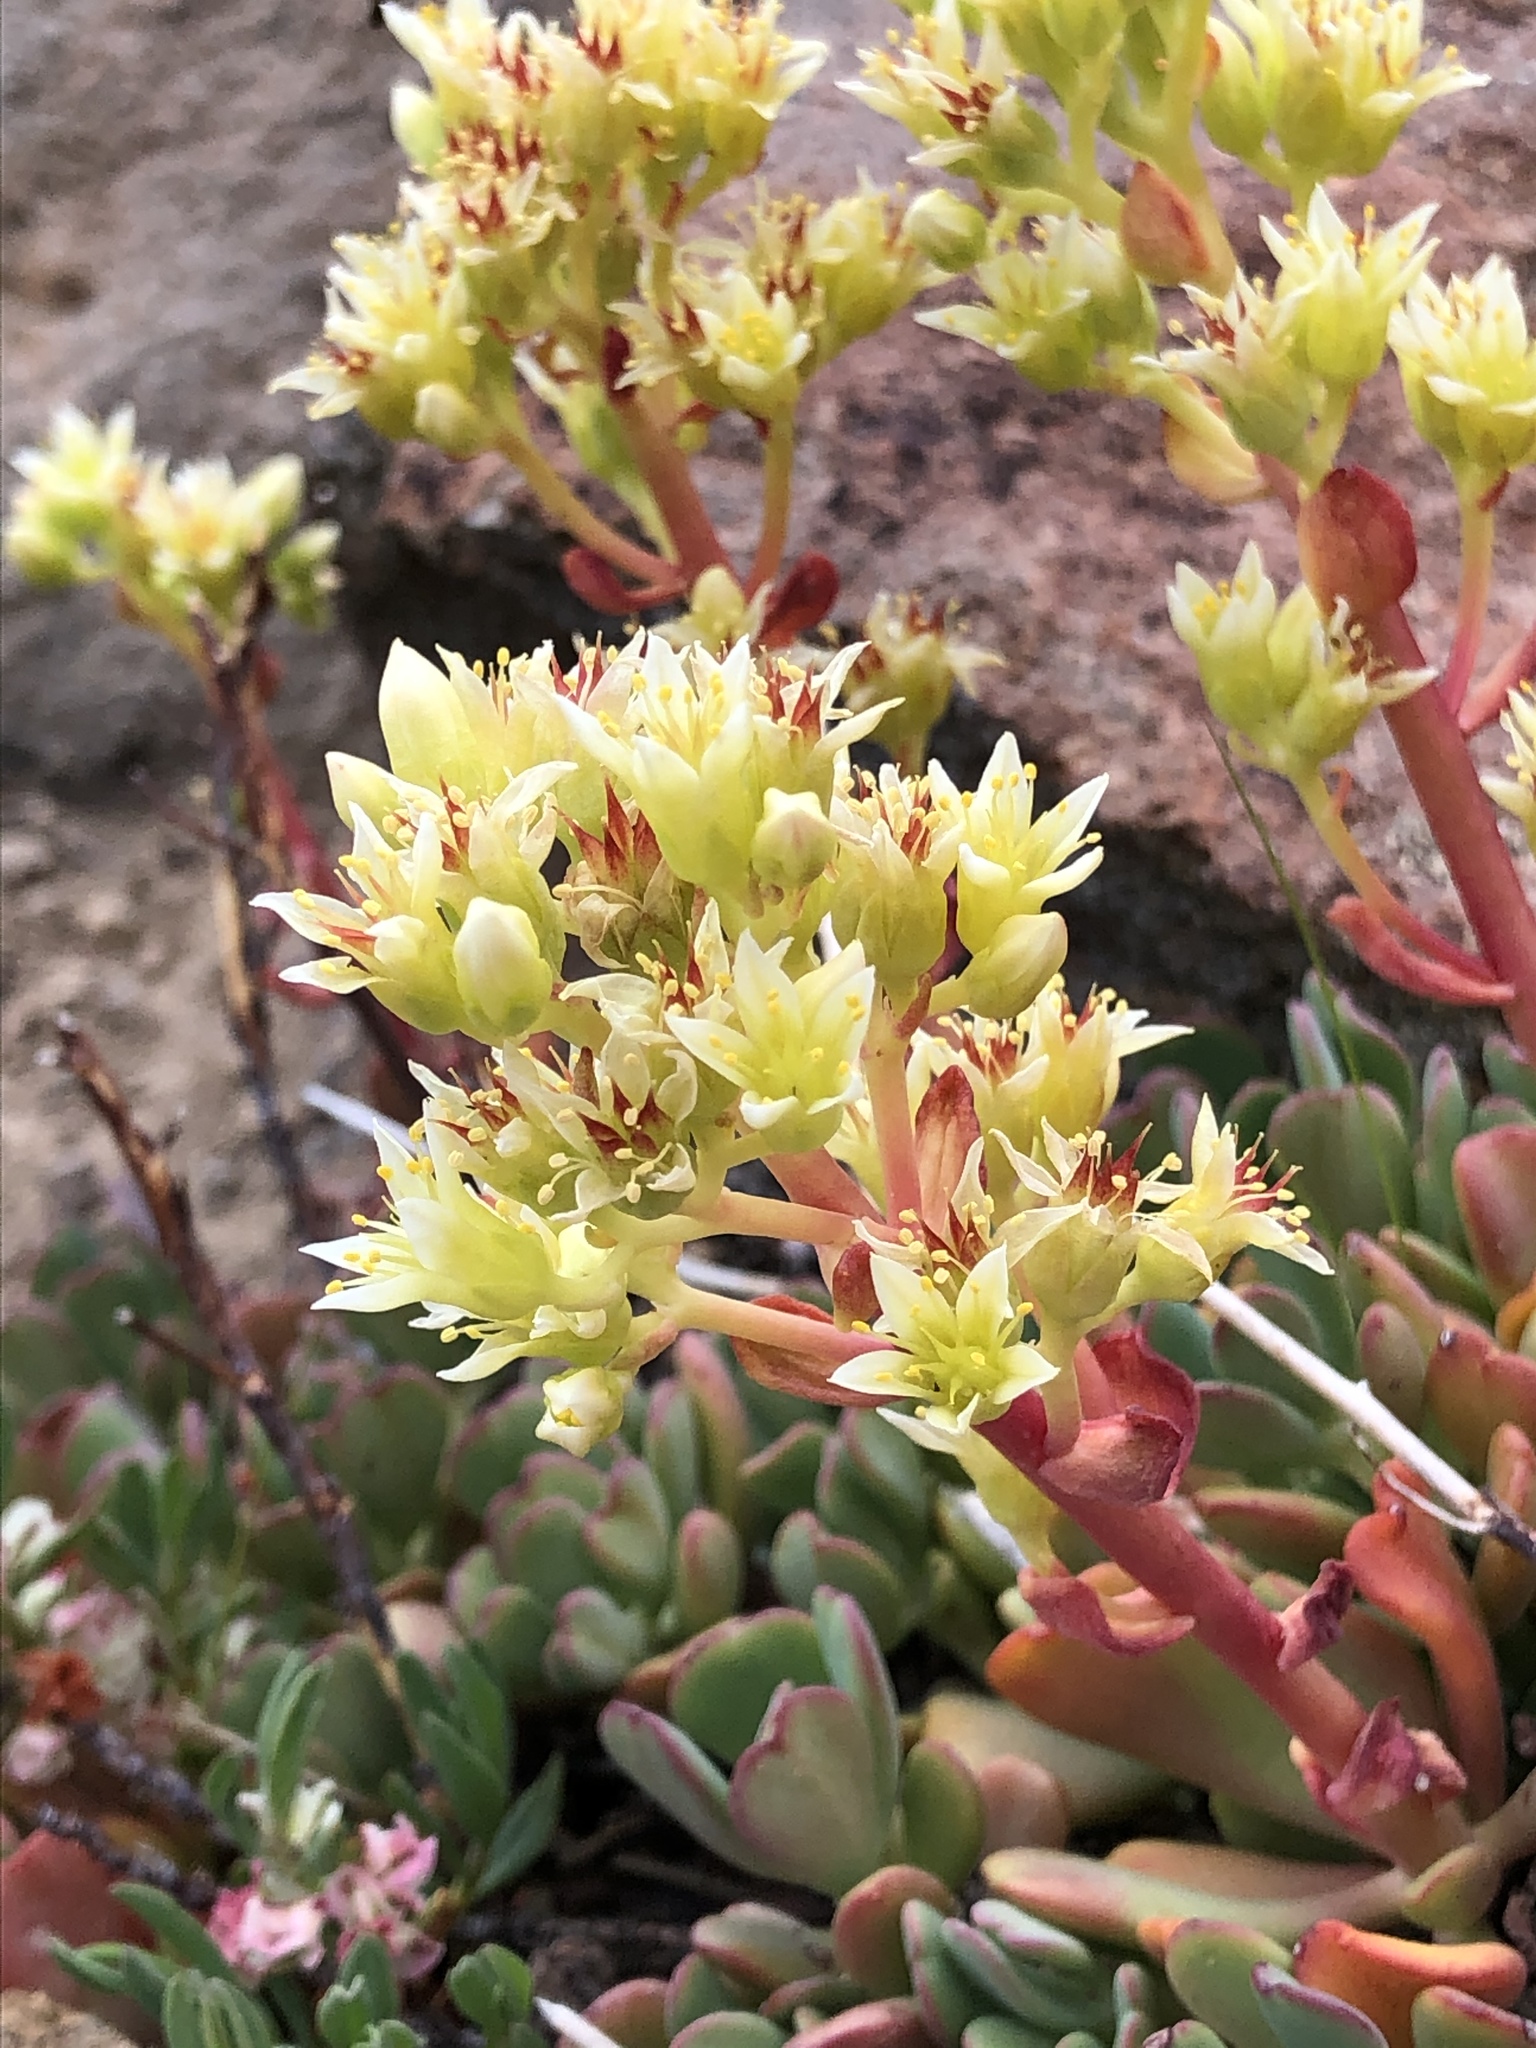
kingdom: Plantae
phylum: Tracheophyta
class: Magnoliopsida
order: Saxifragales
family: Crassulaceae
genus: Sedum
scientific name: Sedum oregonense
